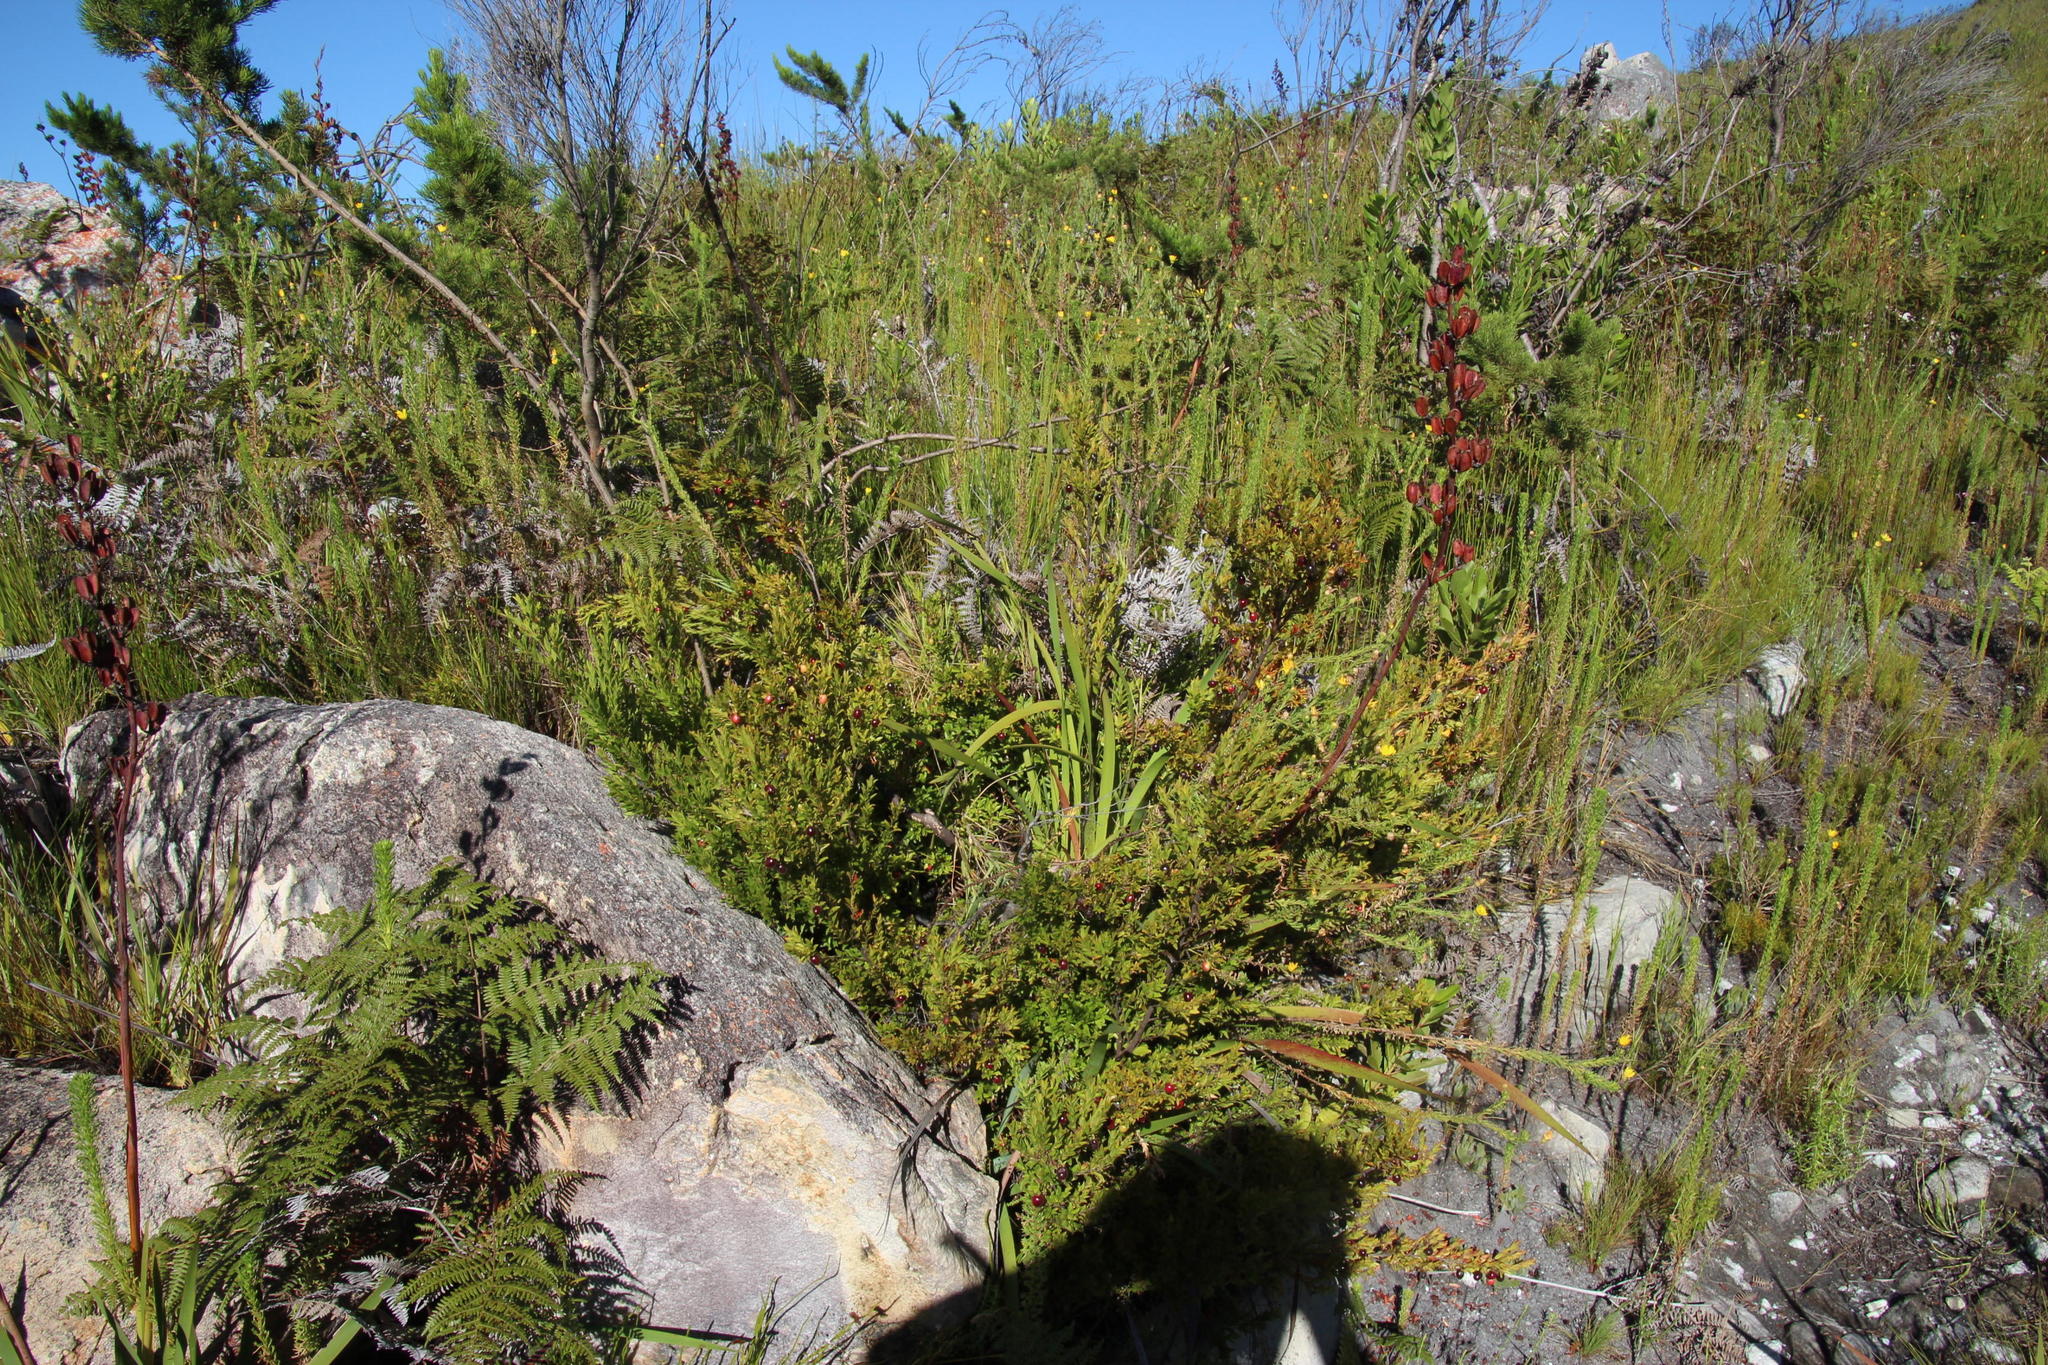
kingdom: Plantae
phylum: Tracheophyta
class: Magnoliopsida
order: Ericales
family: Ebenaceae
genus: Diospyros
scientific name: Diospyros glabra
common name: Fynbos star apple
